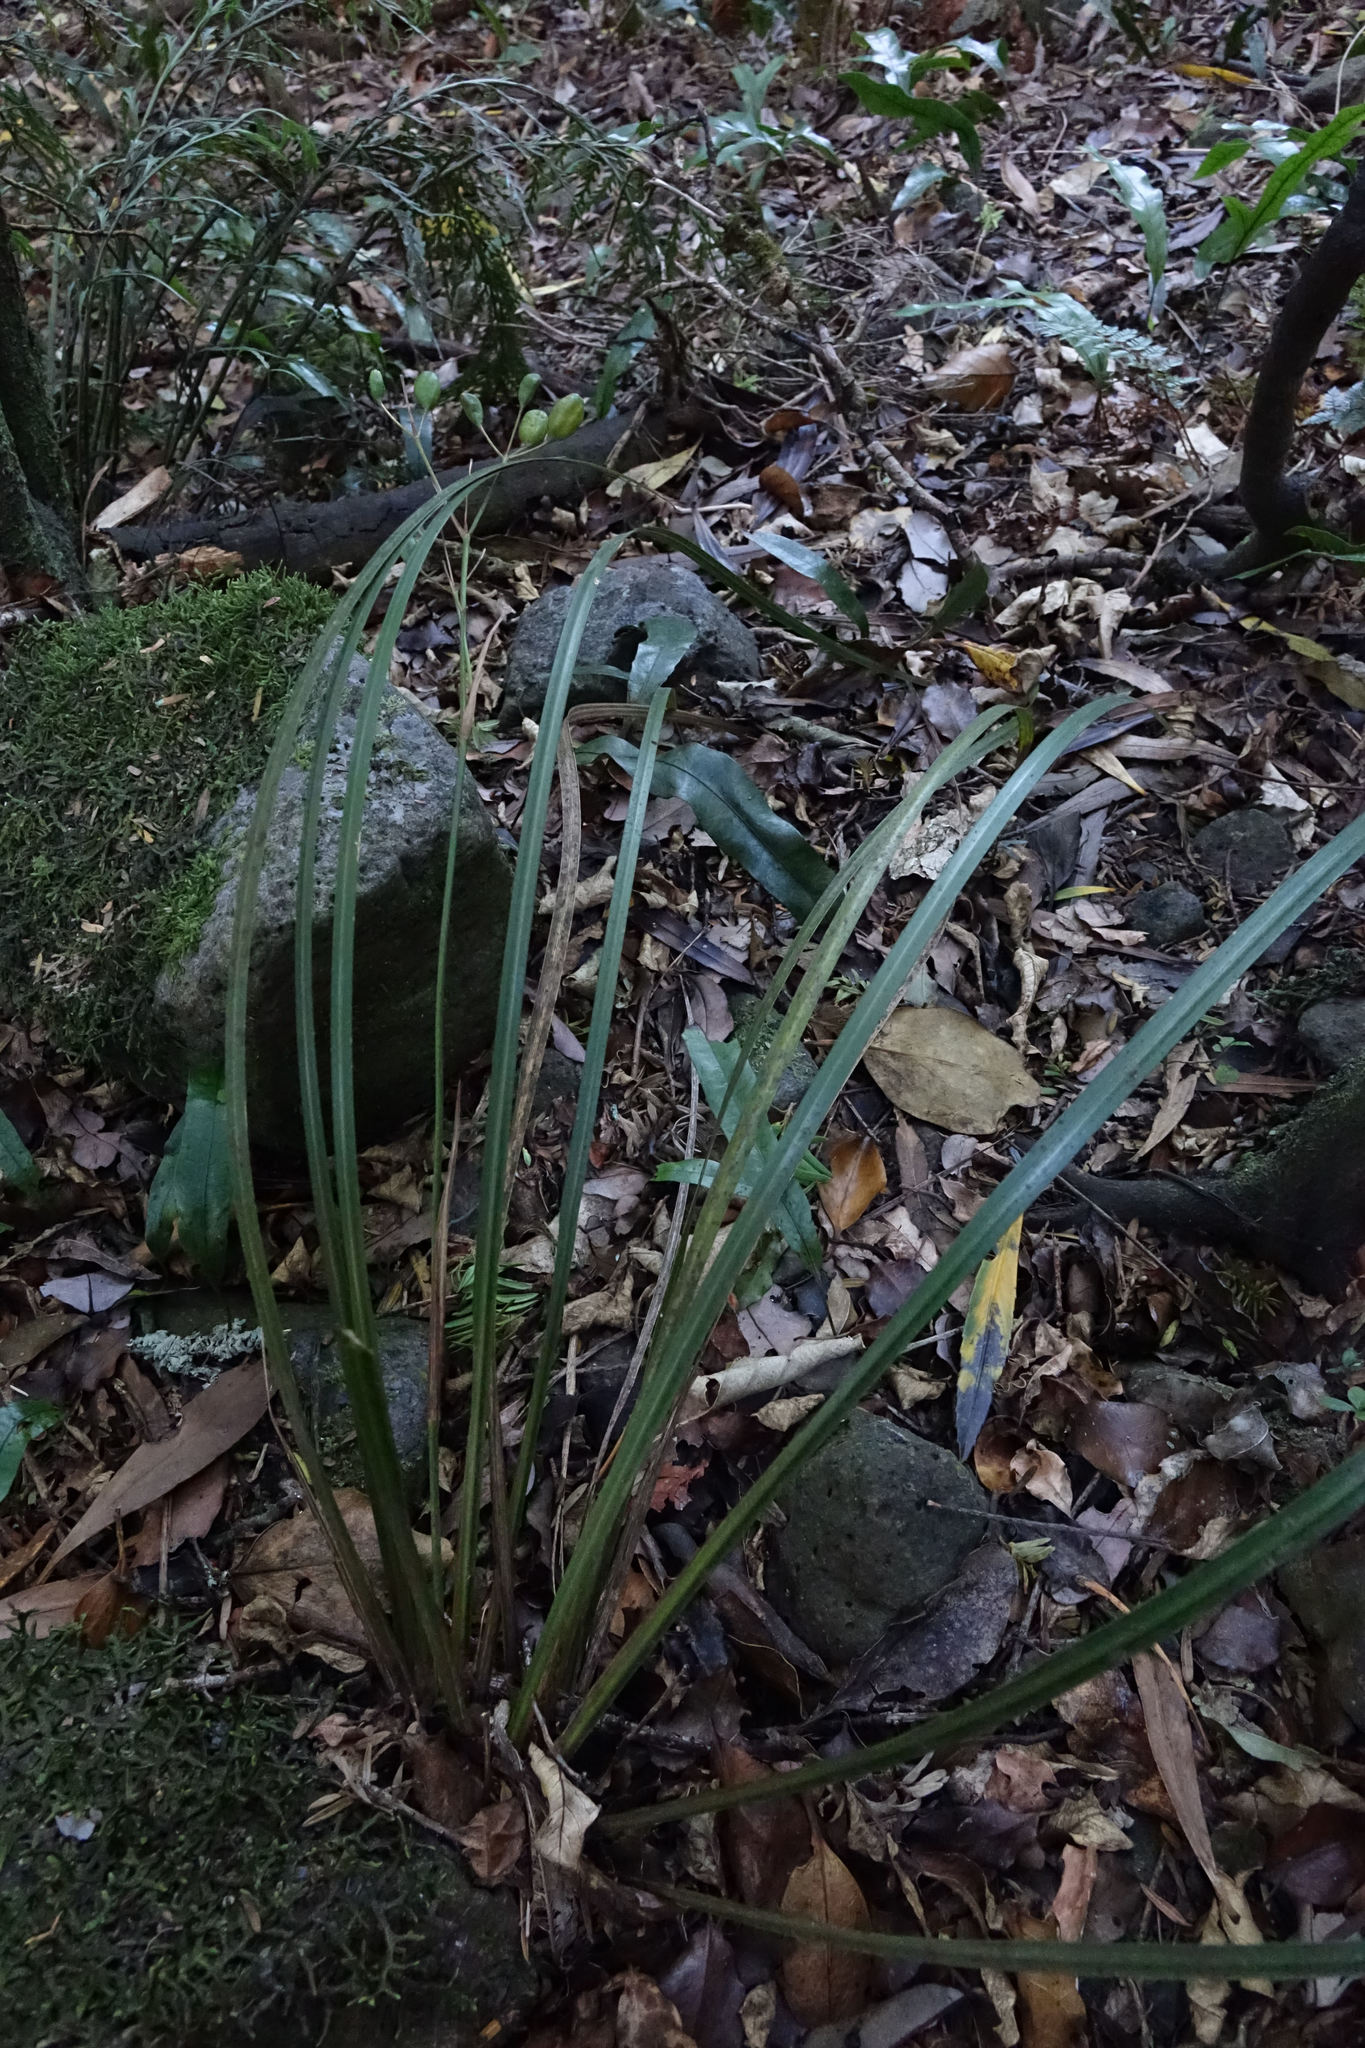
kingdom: Plantae
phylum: Tracheophyta
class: Liliopsida
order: Asparagales
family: Iridaceae
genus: Libertia
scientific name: Libertia ixioides
